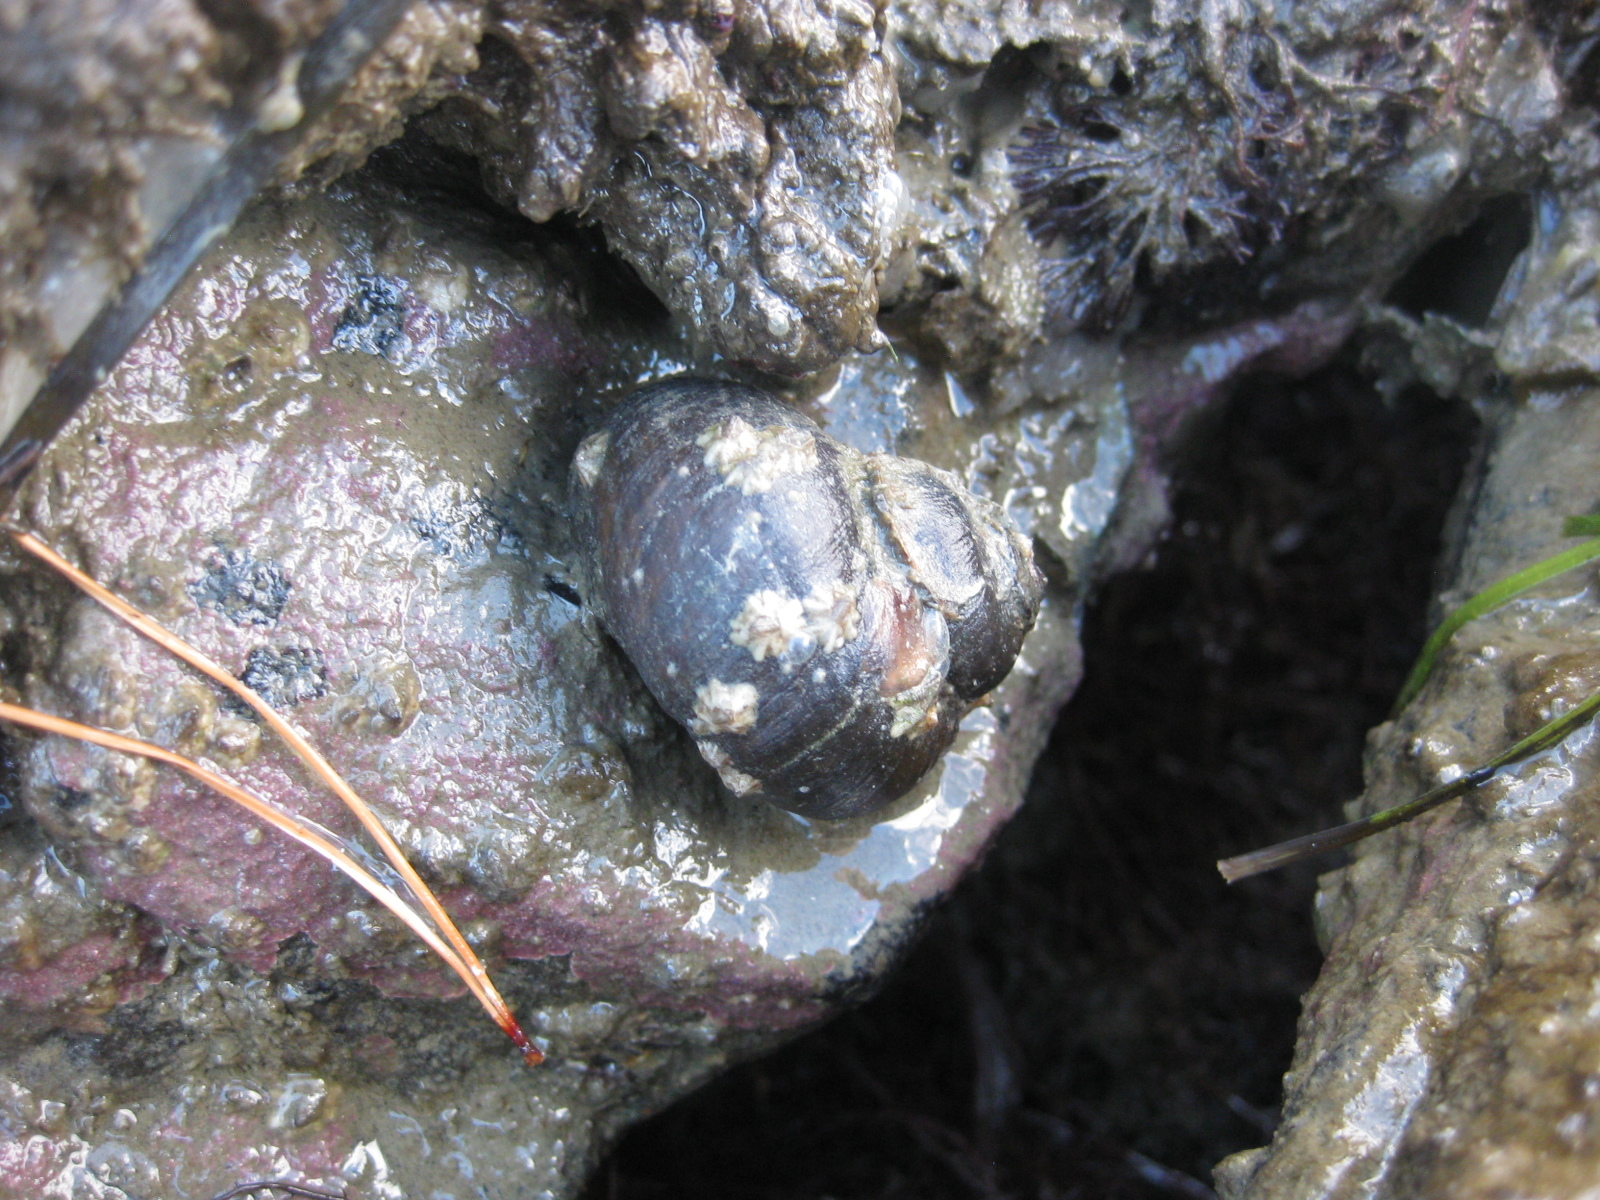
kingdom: Animalia
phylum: Mollusca
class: Gastropoda
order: Trochida
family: Turbinidae
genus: Lunella
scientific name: Lunella smaragda
